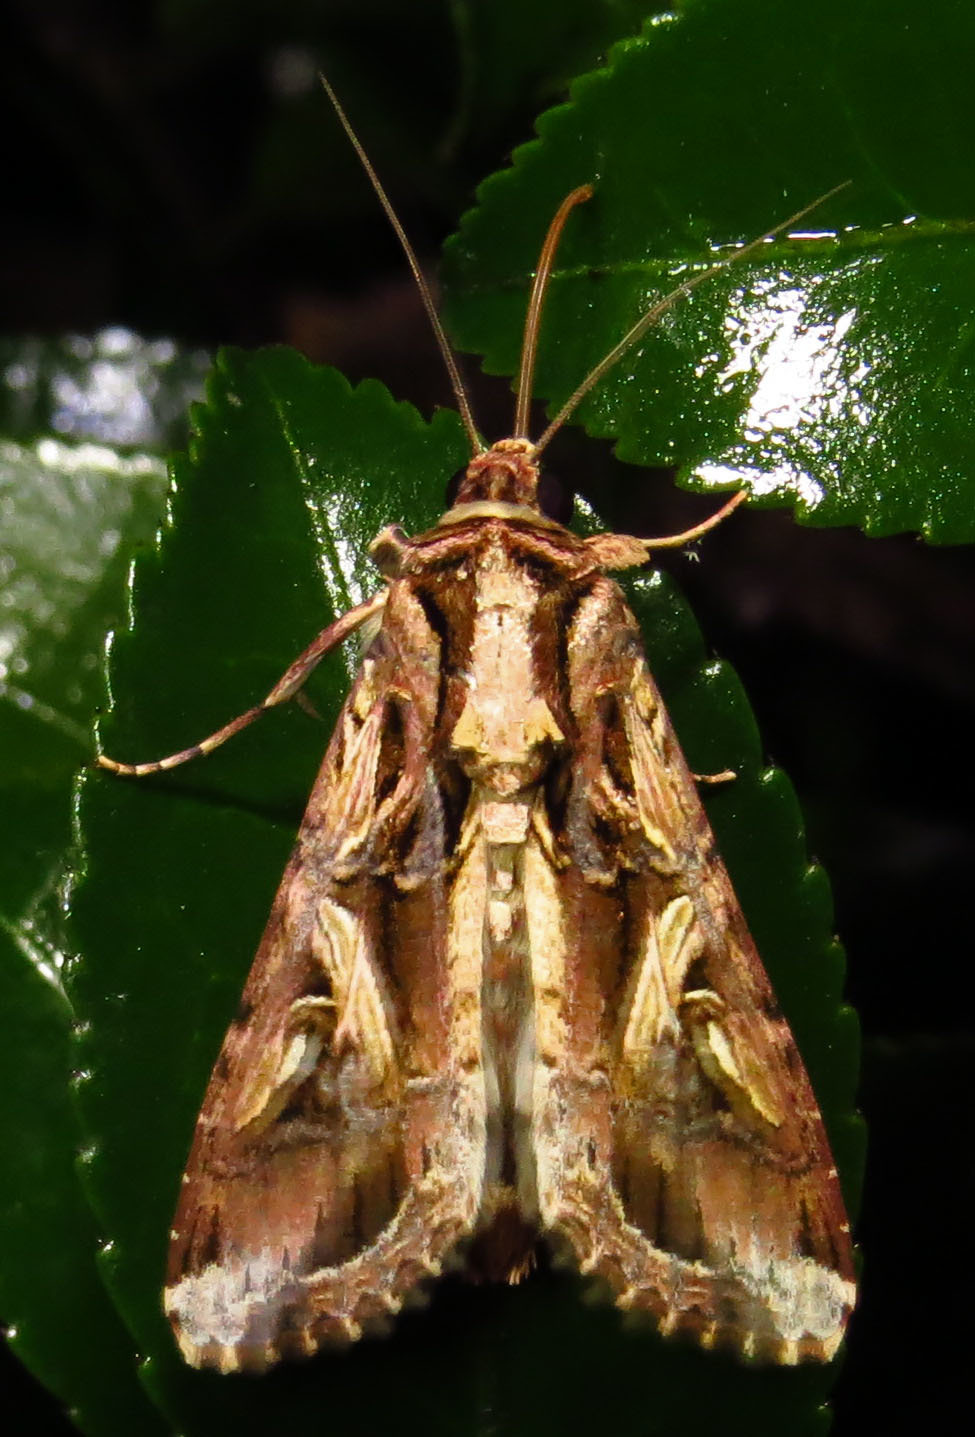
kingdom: Animalia
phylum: Arthropoda
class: Insecta
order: Lepidoptera
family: Noctuidae
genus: Spodoptera
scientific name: Spodoptera dolichos
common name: Sweetpotato armyworm
